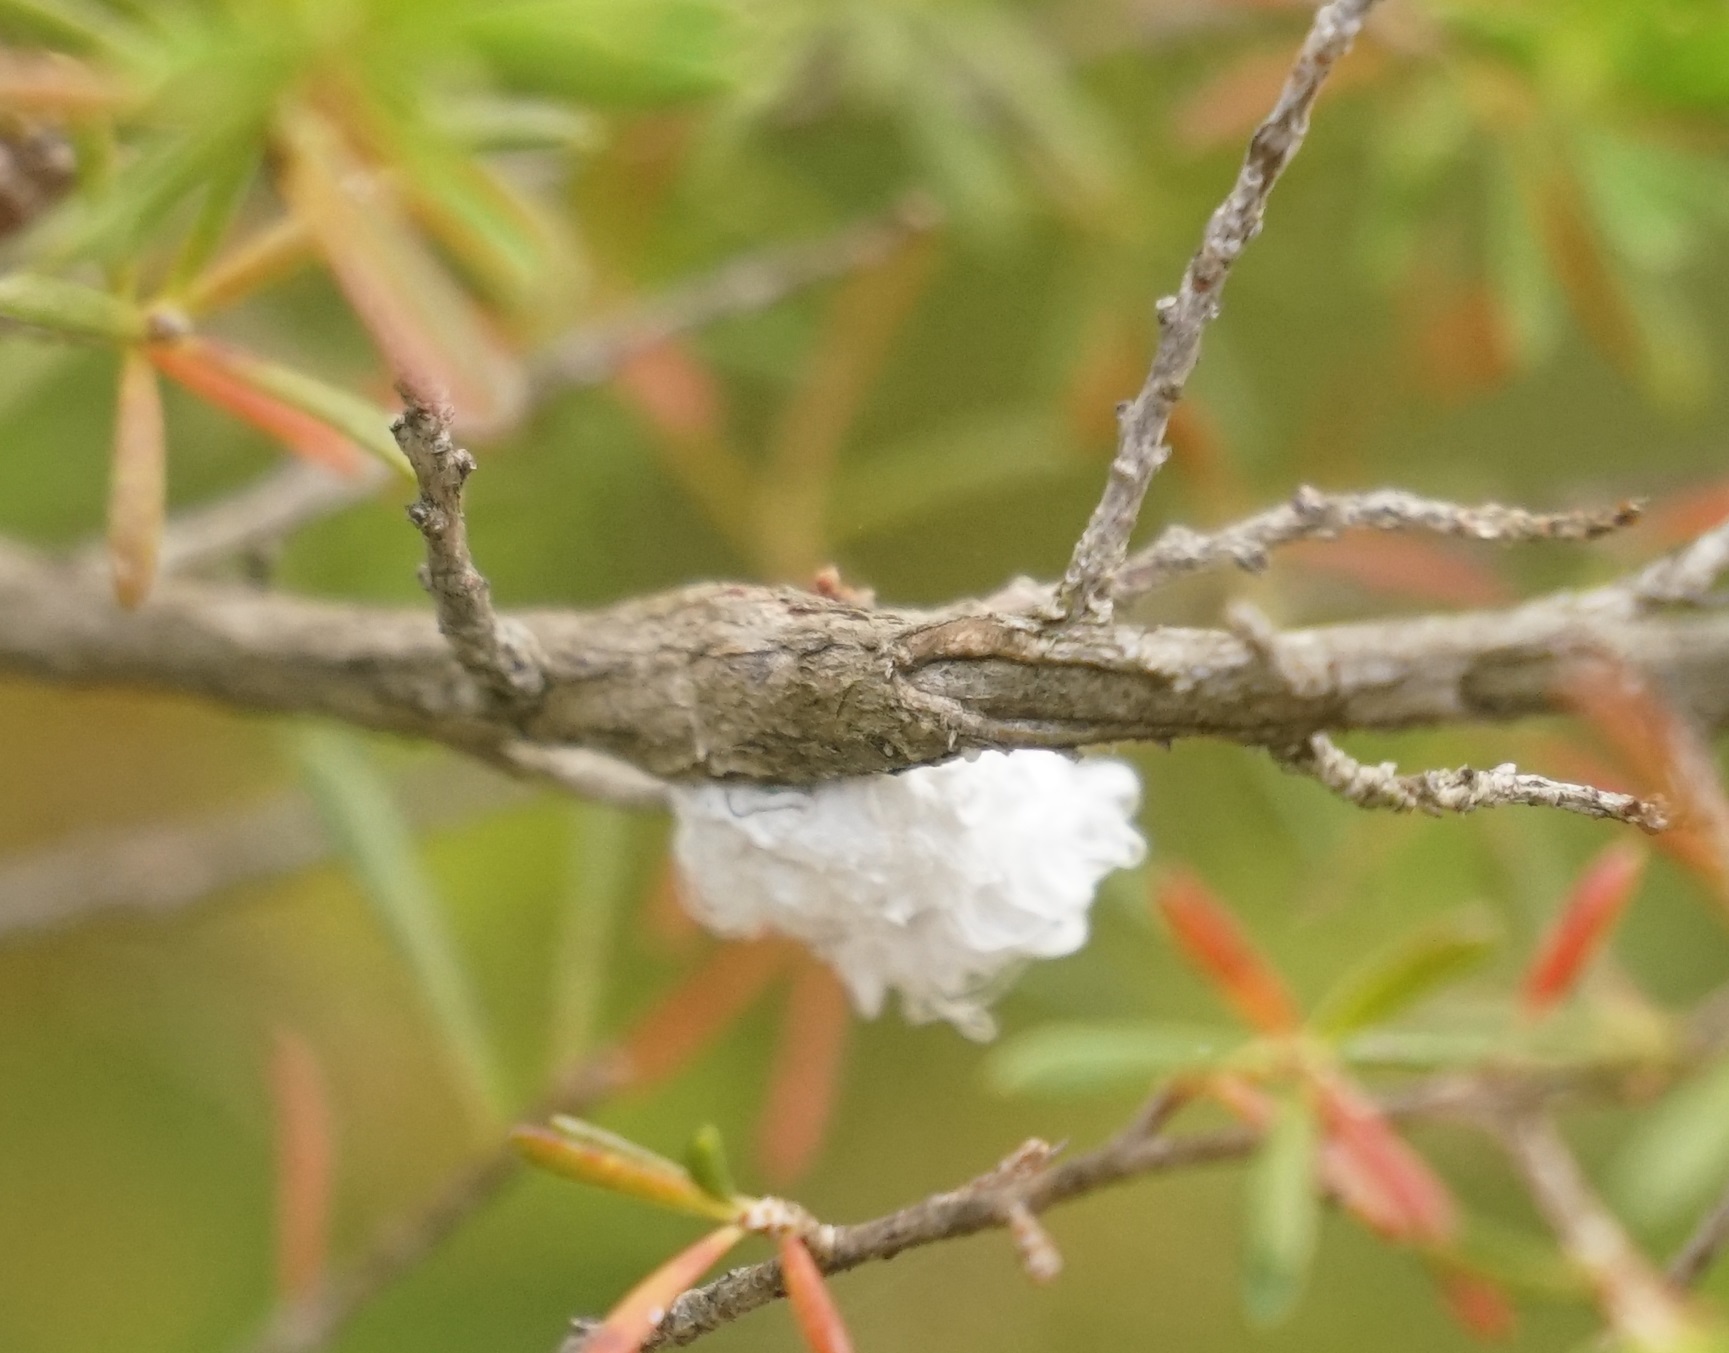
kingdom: Animalia
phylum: Arthropoda
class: Insecta
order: Hemiptera
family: Asterolecaniidae
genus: Callococcus
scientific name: Callococcus
